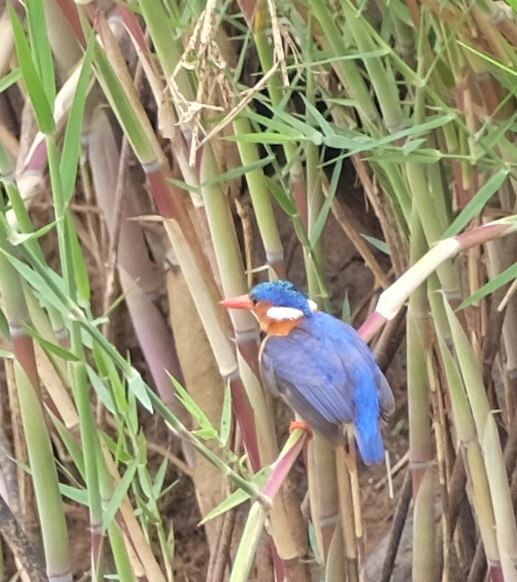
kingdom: Animalia
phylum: Chordata
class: Aves
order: Coraciiformes
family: Alcedinidae
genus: Corythornis
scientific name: Corythornis cristatus
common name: Malachite kingfisher
